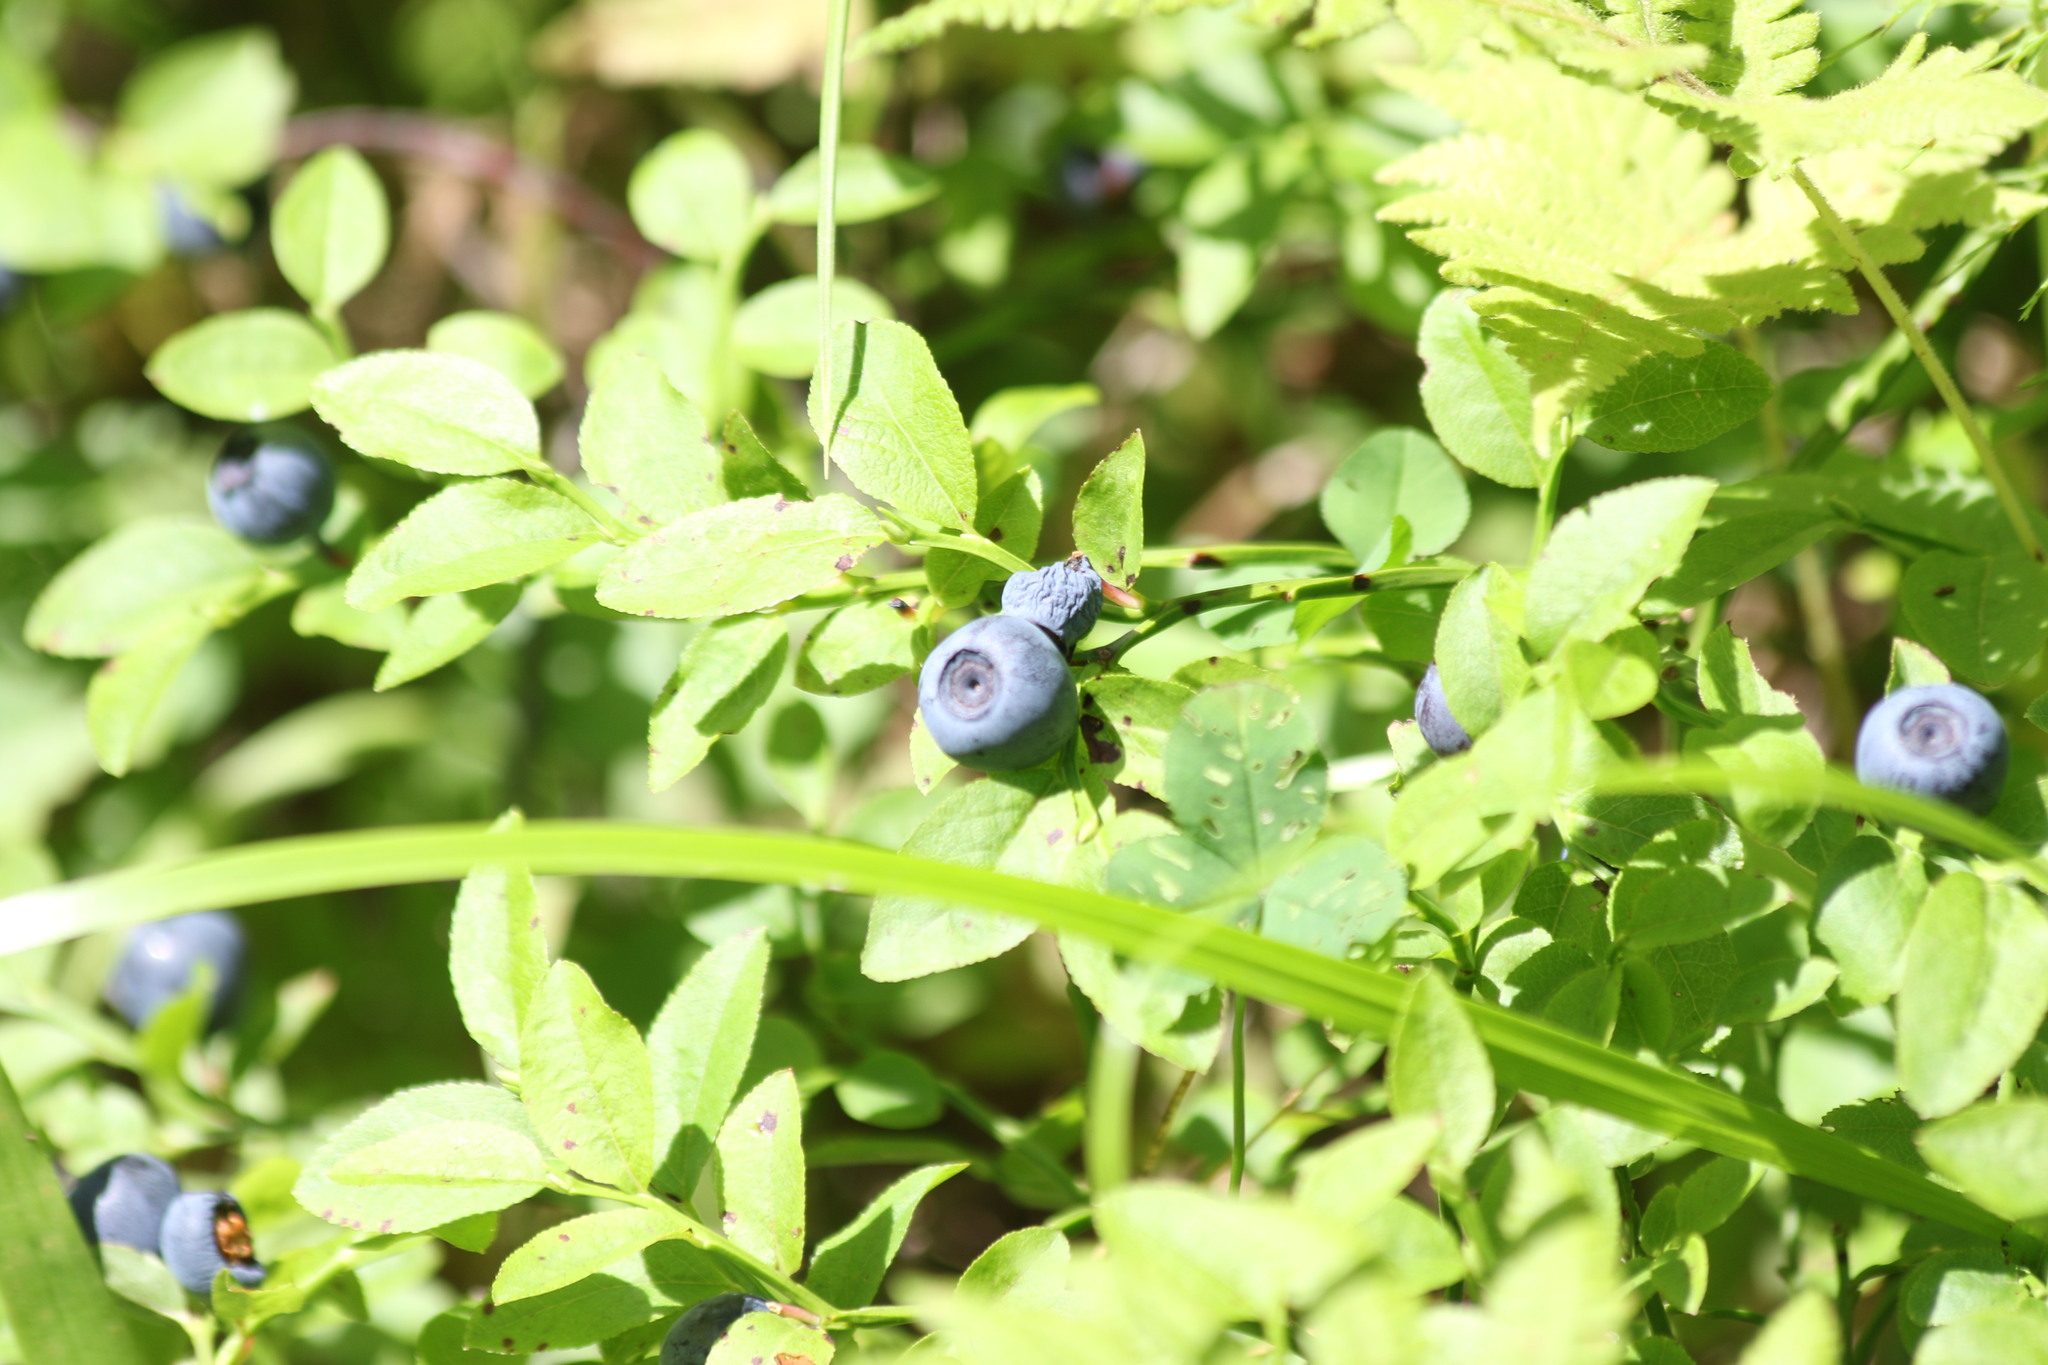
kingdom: Plantae
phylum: Tracheophyta
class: Magnoliopsida
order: Ericales
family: Ericaceae
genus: Vaccinium
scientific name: Vaccinium myrtillus
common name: Bilberry
